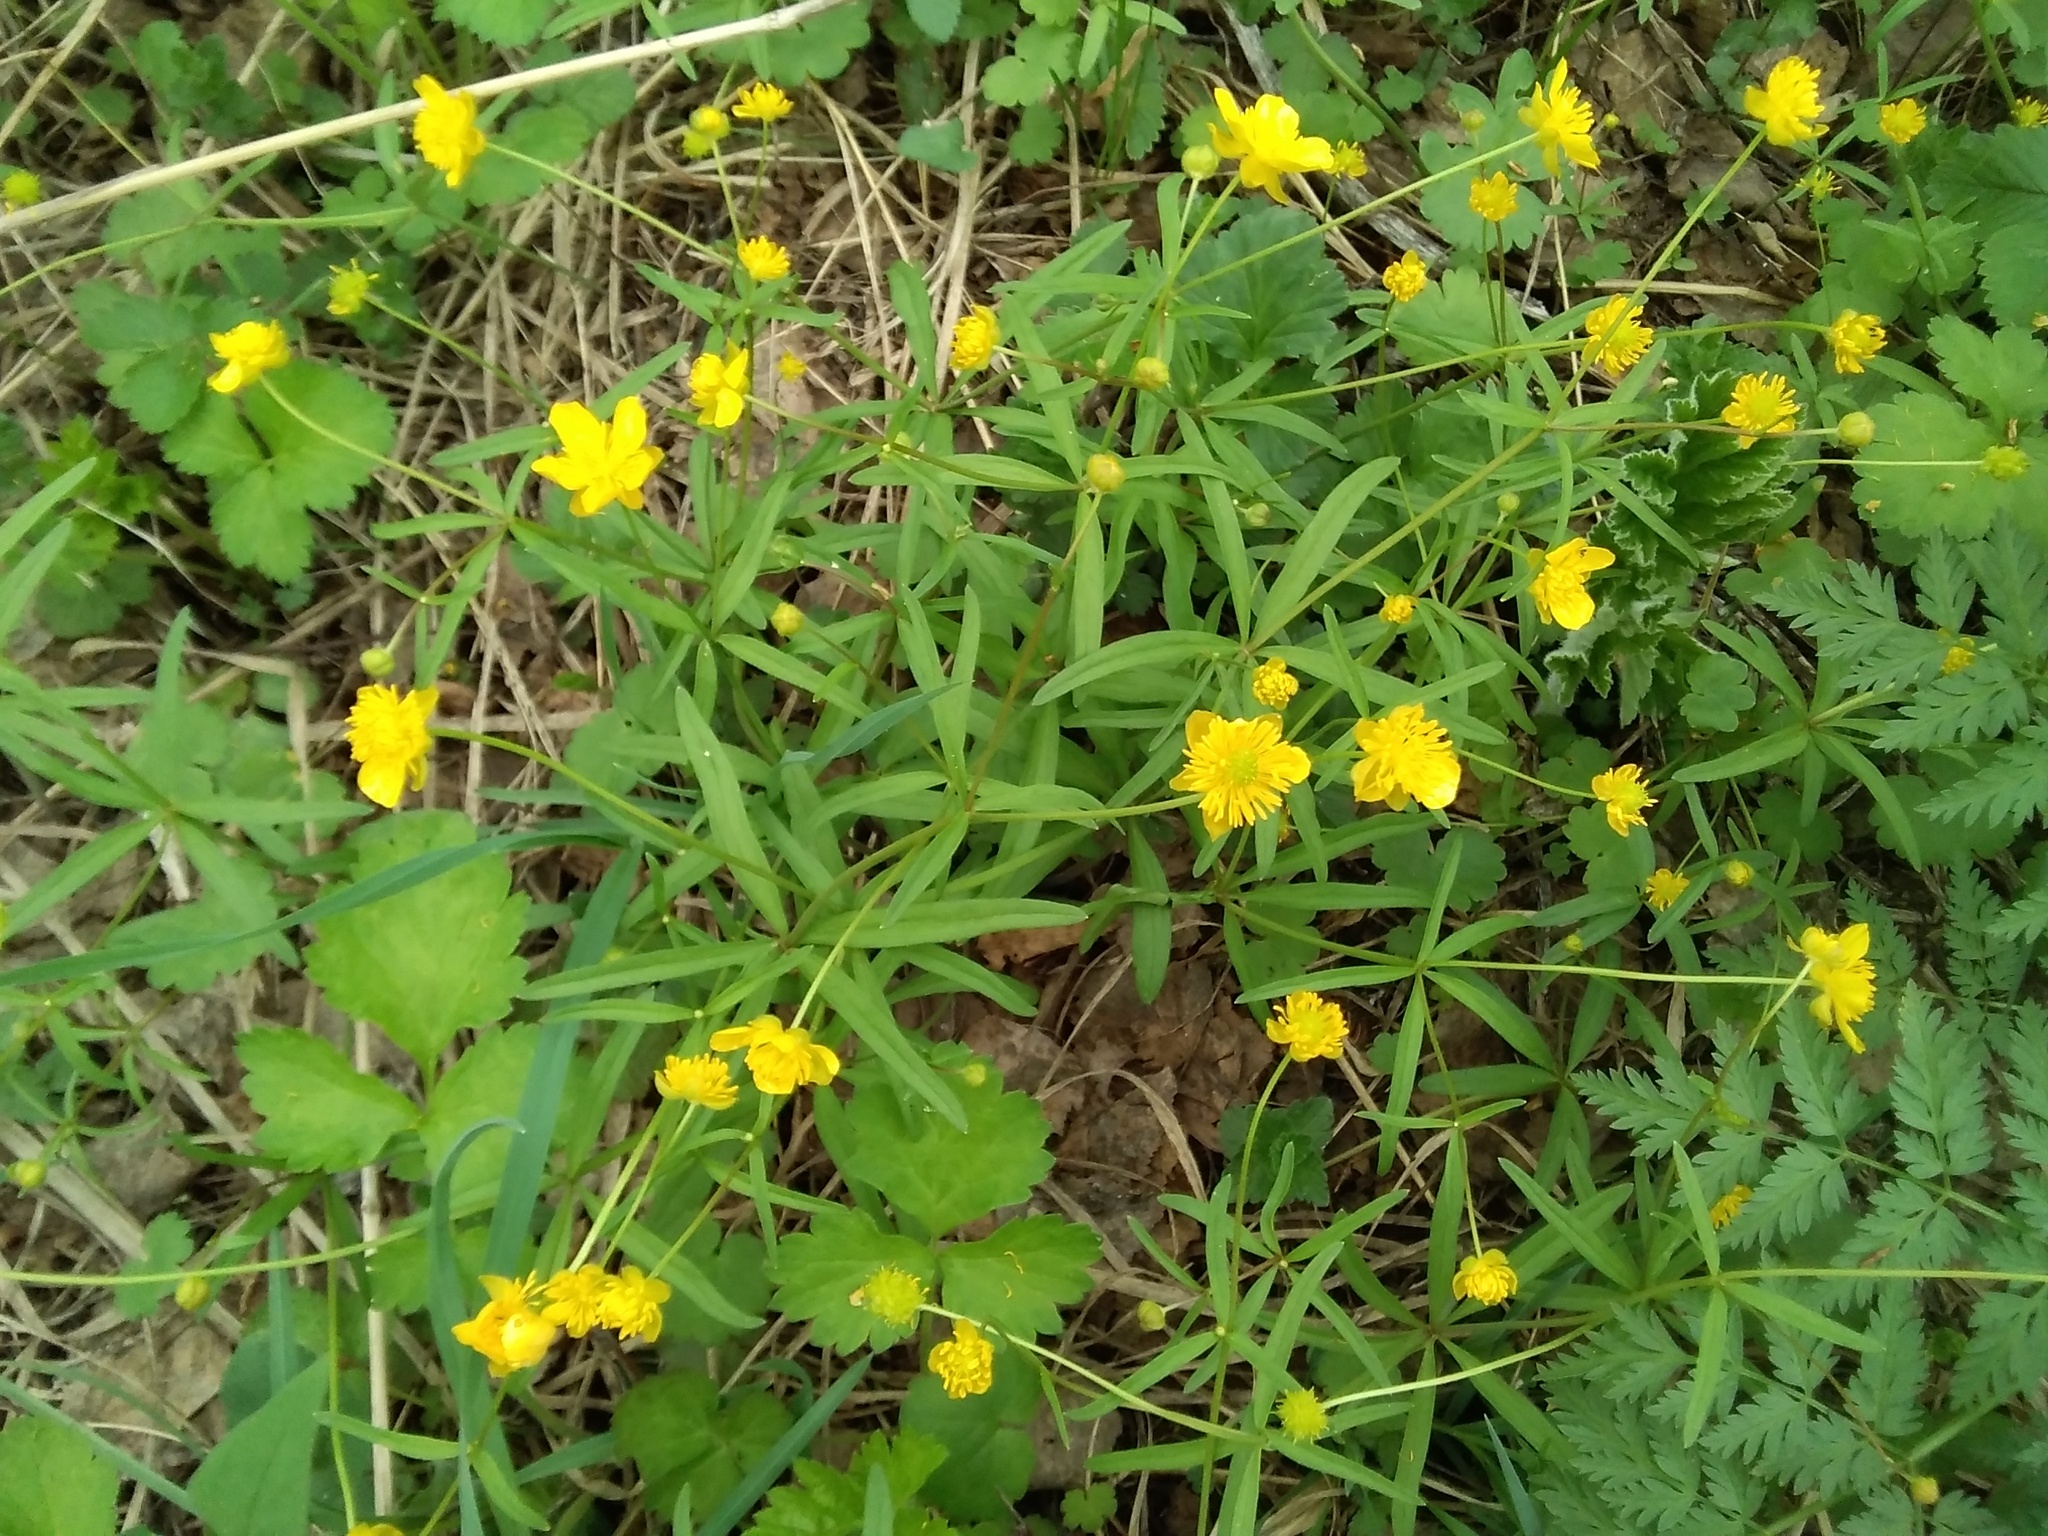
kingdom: Plantae
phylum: Tracheophyta
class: Magnoliopsida
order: Ranunculales
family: Ranunculaceae
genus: Ranunculus
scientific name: Ranunculus monophyllus
